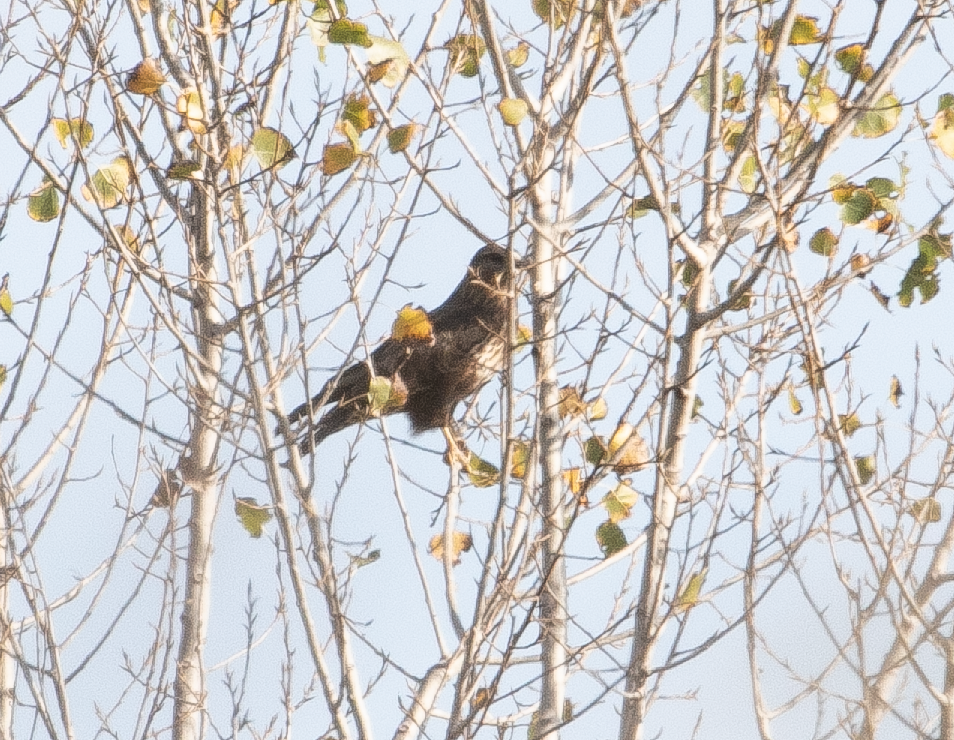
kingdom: Animalia
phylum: Chordata
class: Aves
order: Accipitriformes
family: Accipitridae
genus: Buteo
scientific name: Buteo buteo
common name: Common buzzard
